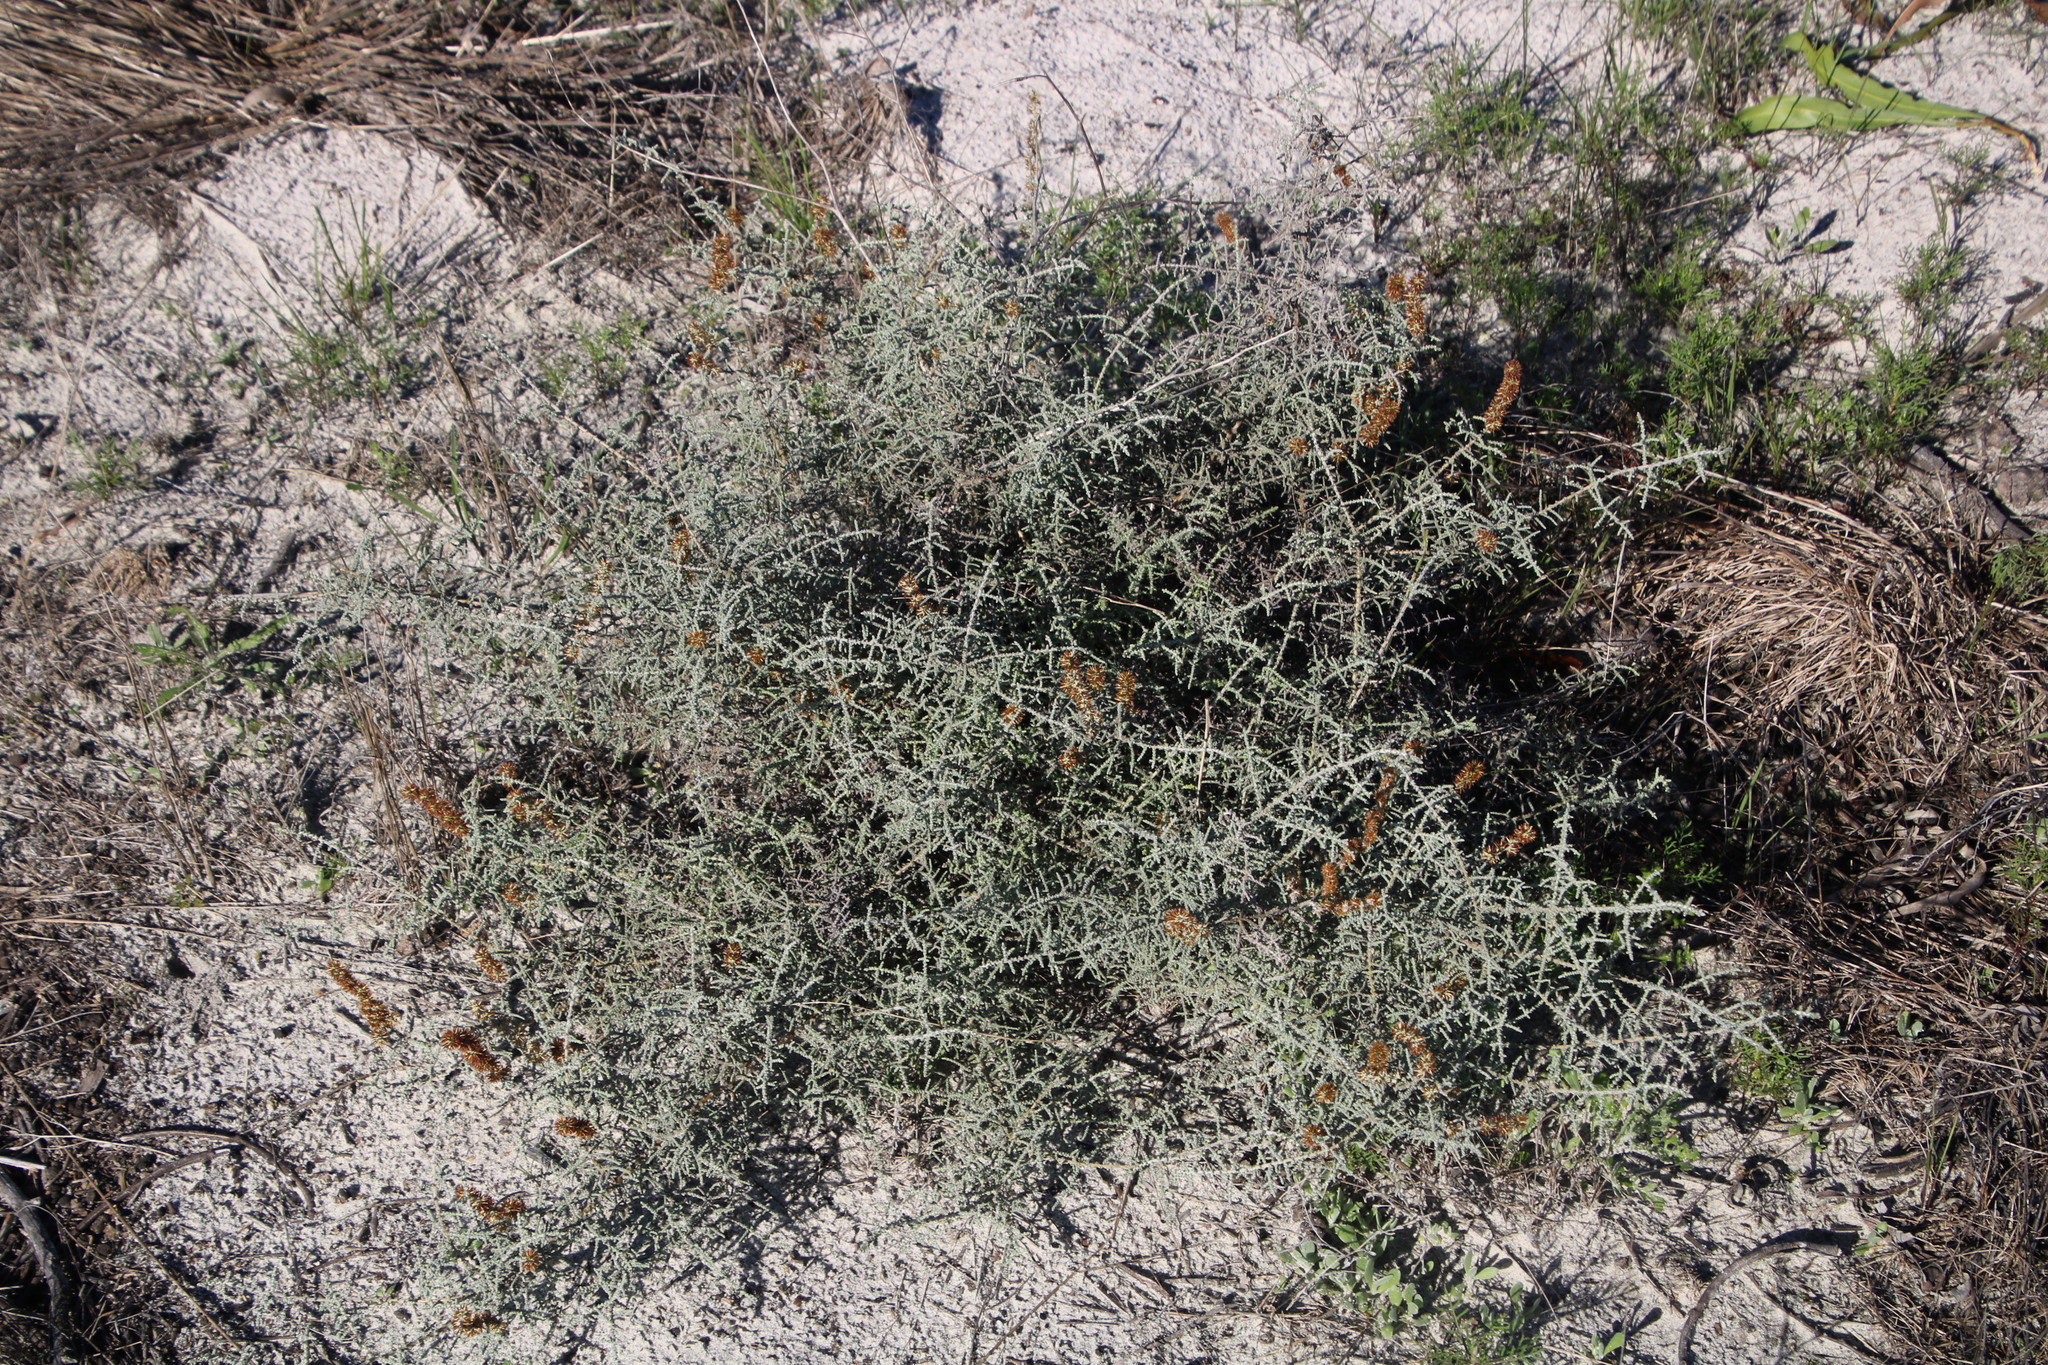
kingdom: Plantae
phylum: Tracheophyta
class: Magnoliopsida
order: Asterales
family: Asteraceae
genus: Seriphium
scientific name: Seriphium plumosum
